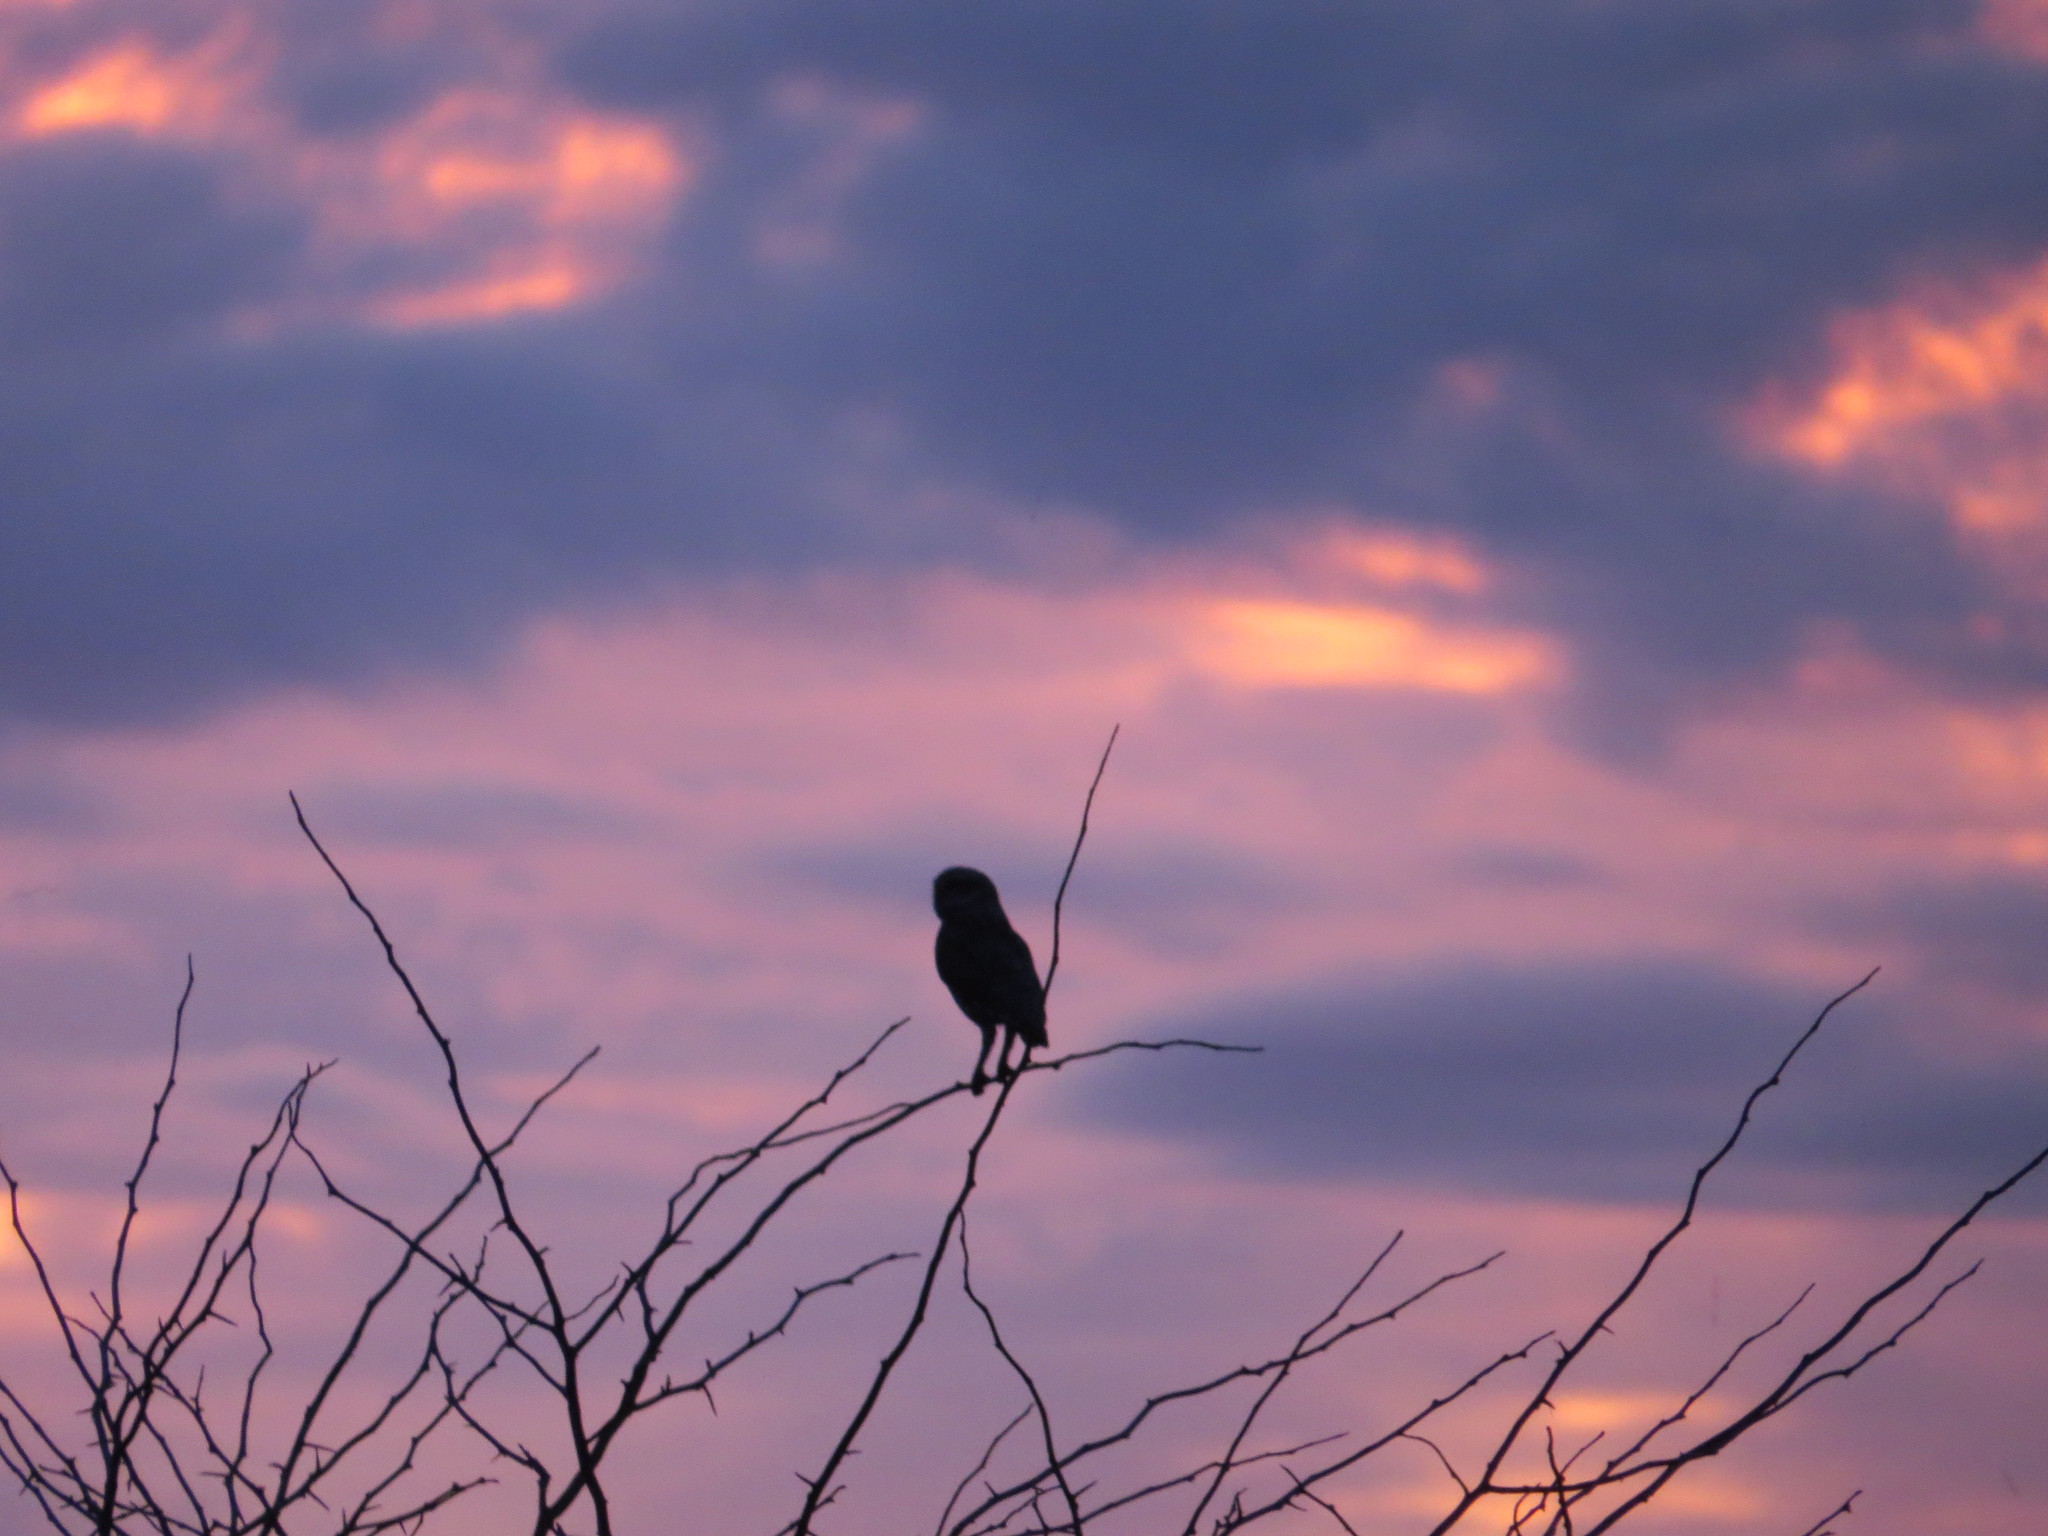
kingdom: Animalia
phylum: Chordata
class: Aves
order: Strigiformes
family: Strigidae
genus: Athene
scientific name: Athene cunicularia
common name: Burrowing owl
